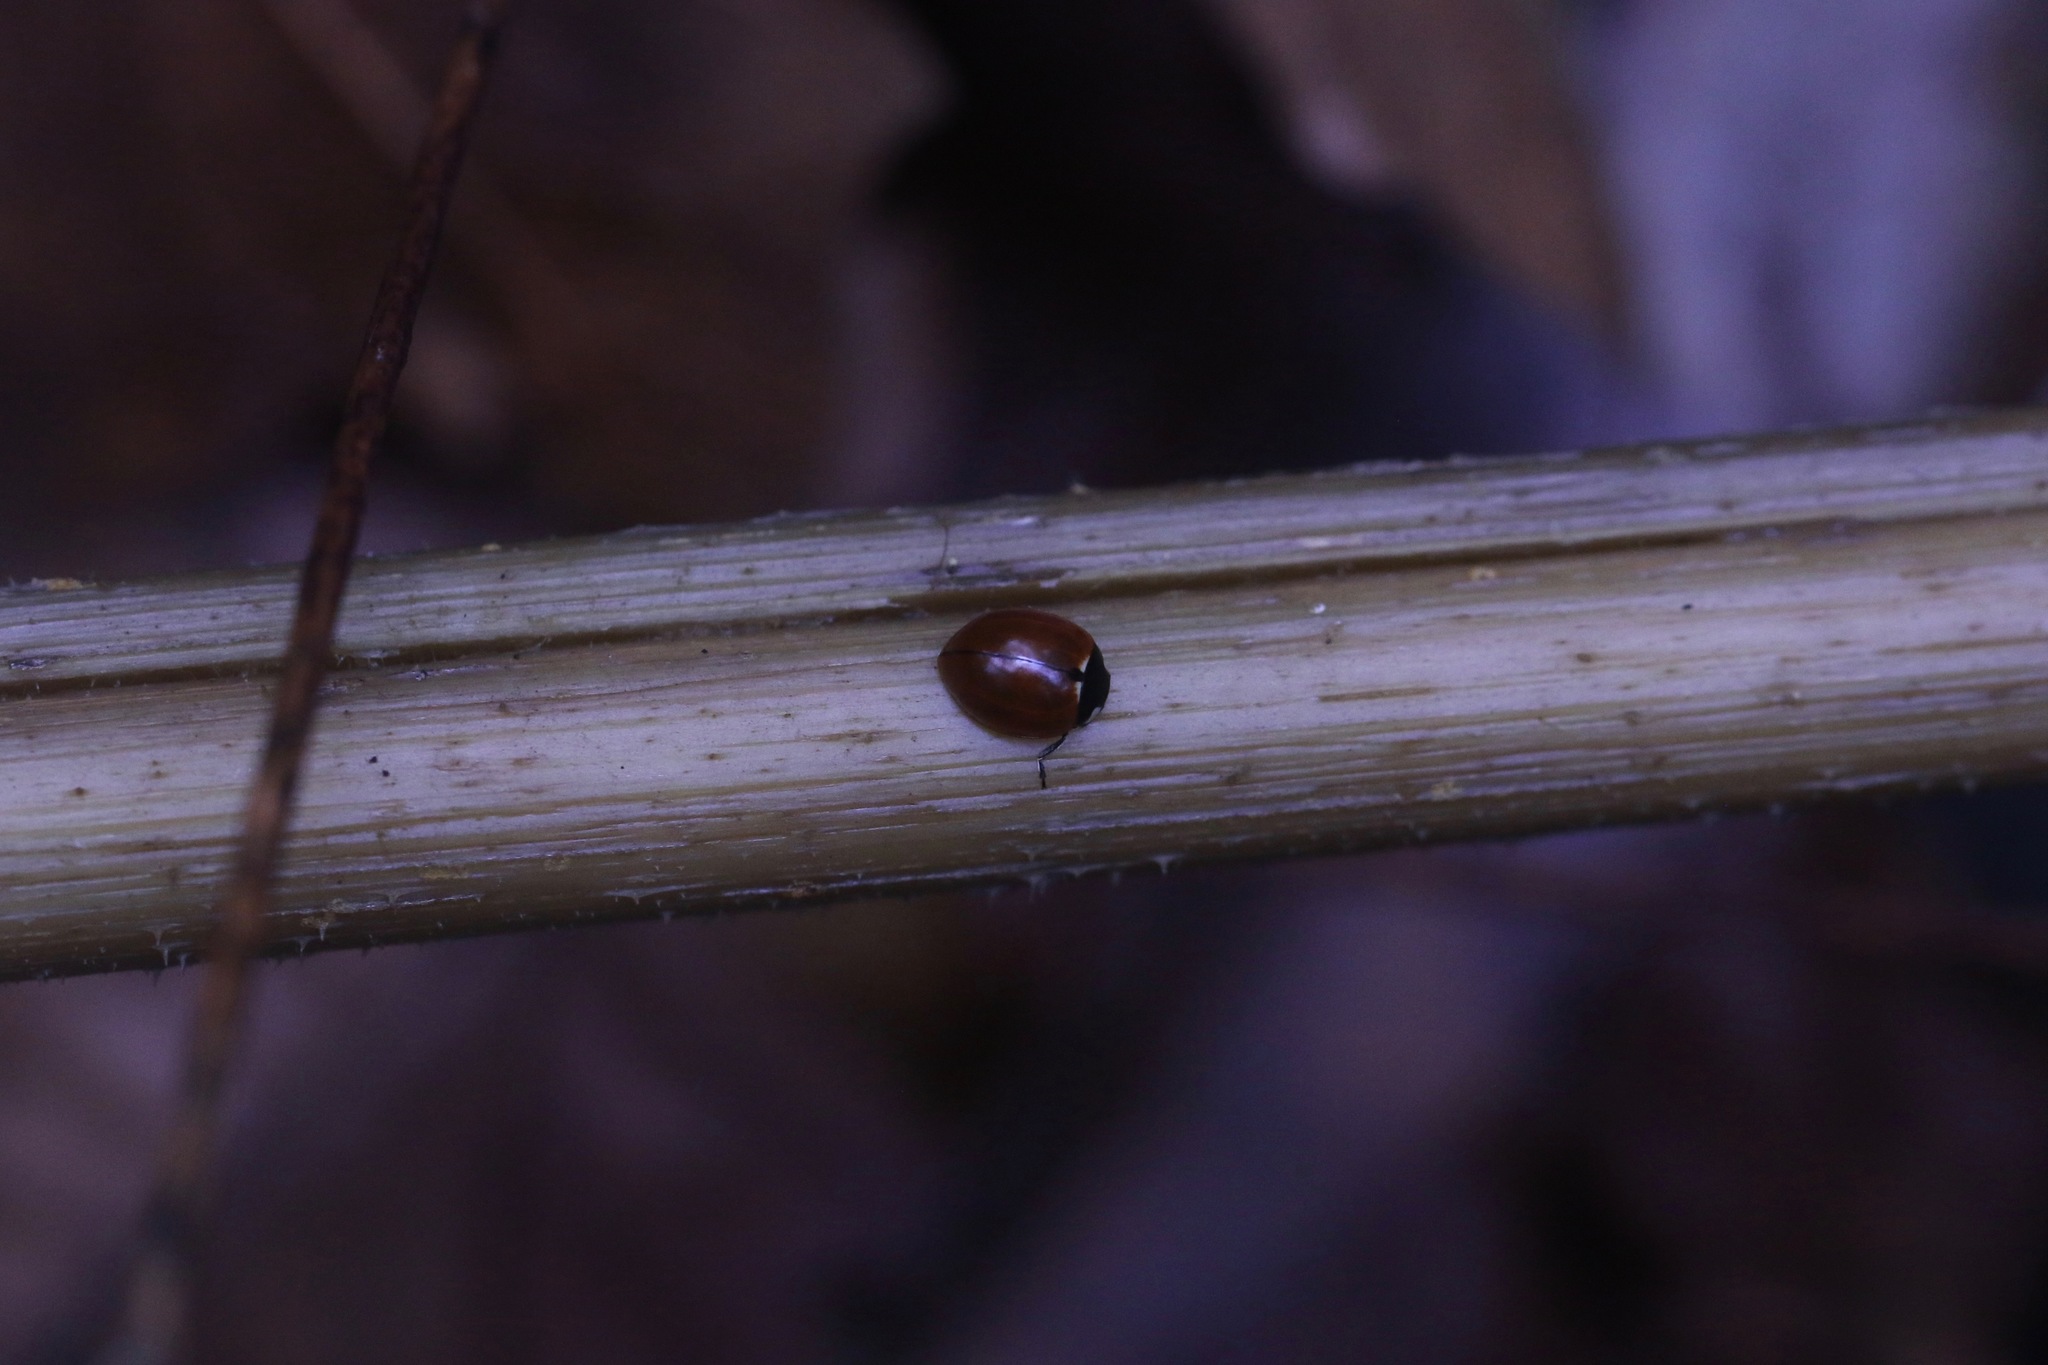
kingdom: Animalia
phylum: Arthropoda
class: Insecta
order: Coleoptera
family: Coccinellidae
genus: Coccinella
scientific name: Coccinella californica
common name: Lady beetle
